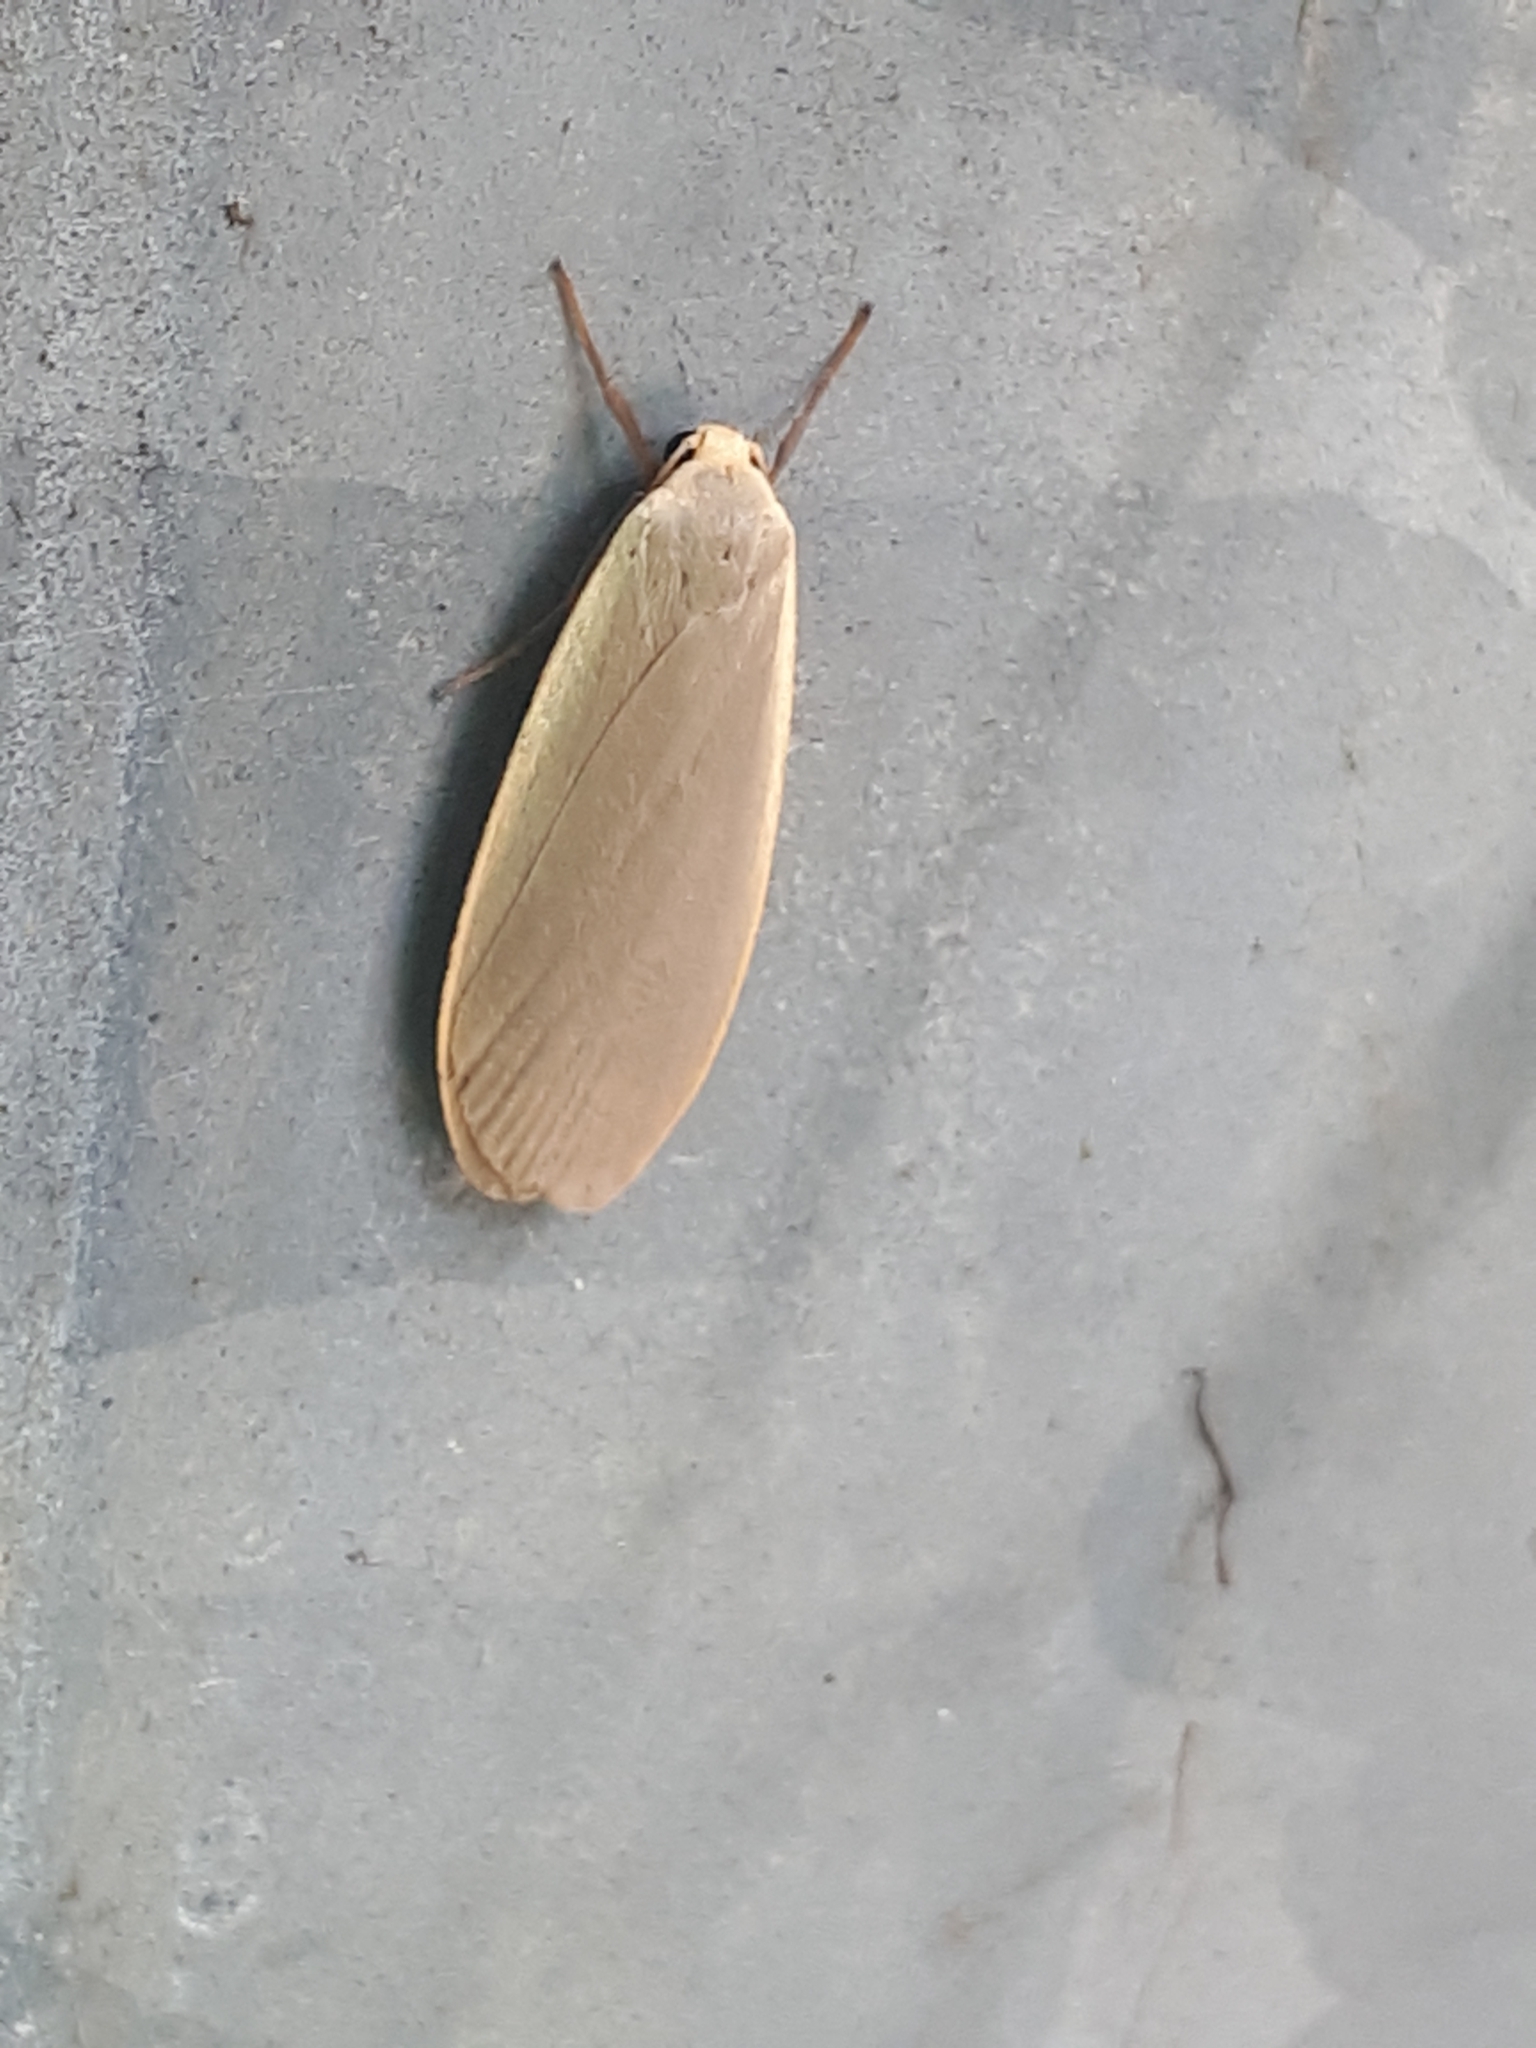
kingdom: Animalia
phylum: Arthropoda
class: Insecta
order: Lepidoptera
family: Erebidae
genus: Collita
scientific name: Collita griseola
